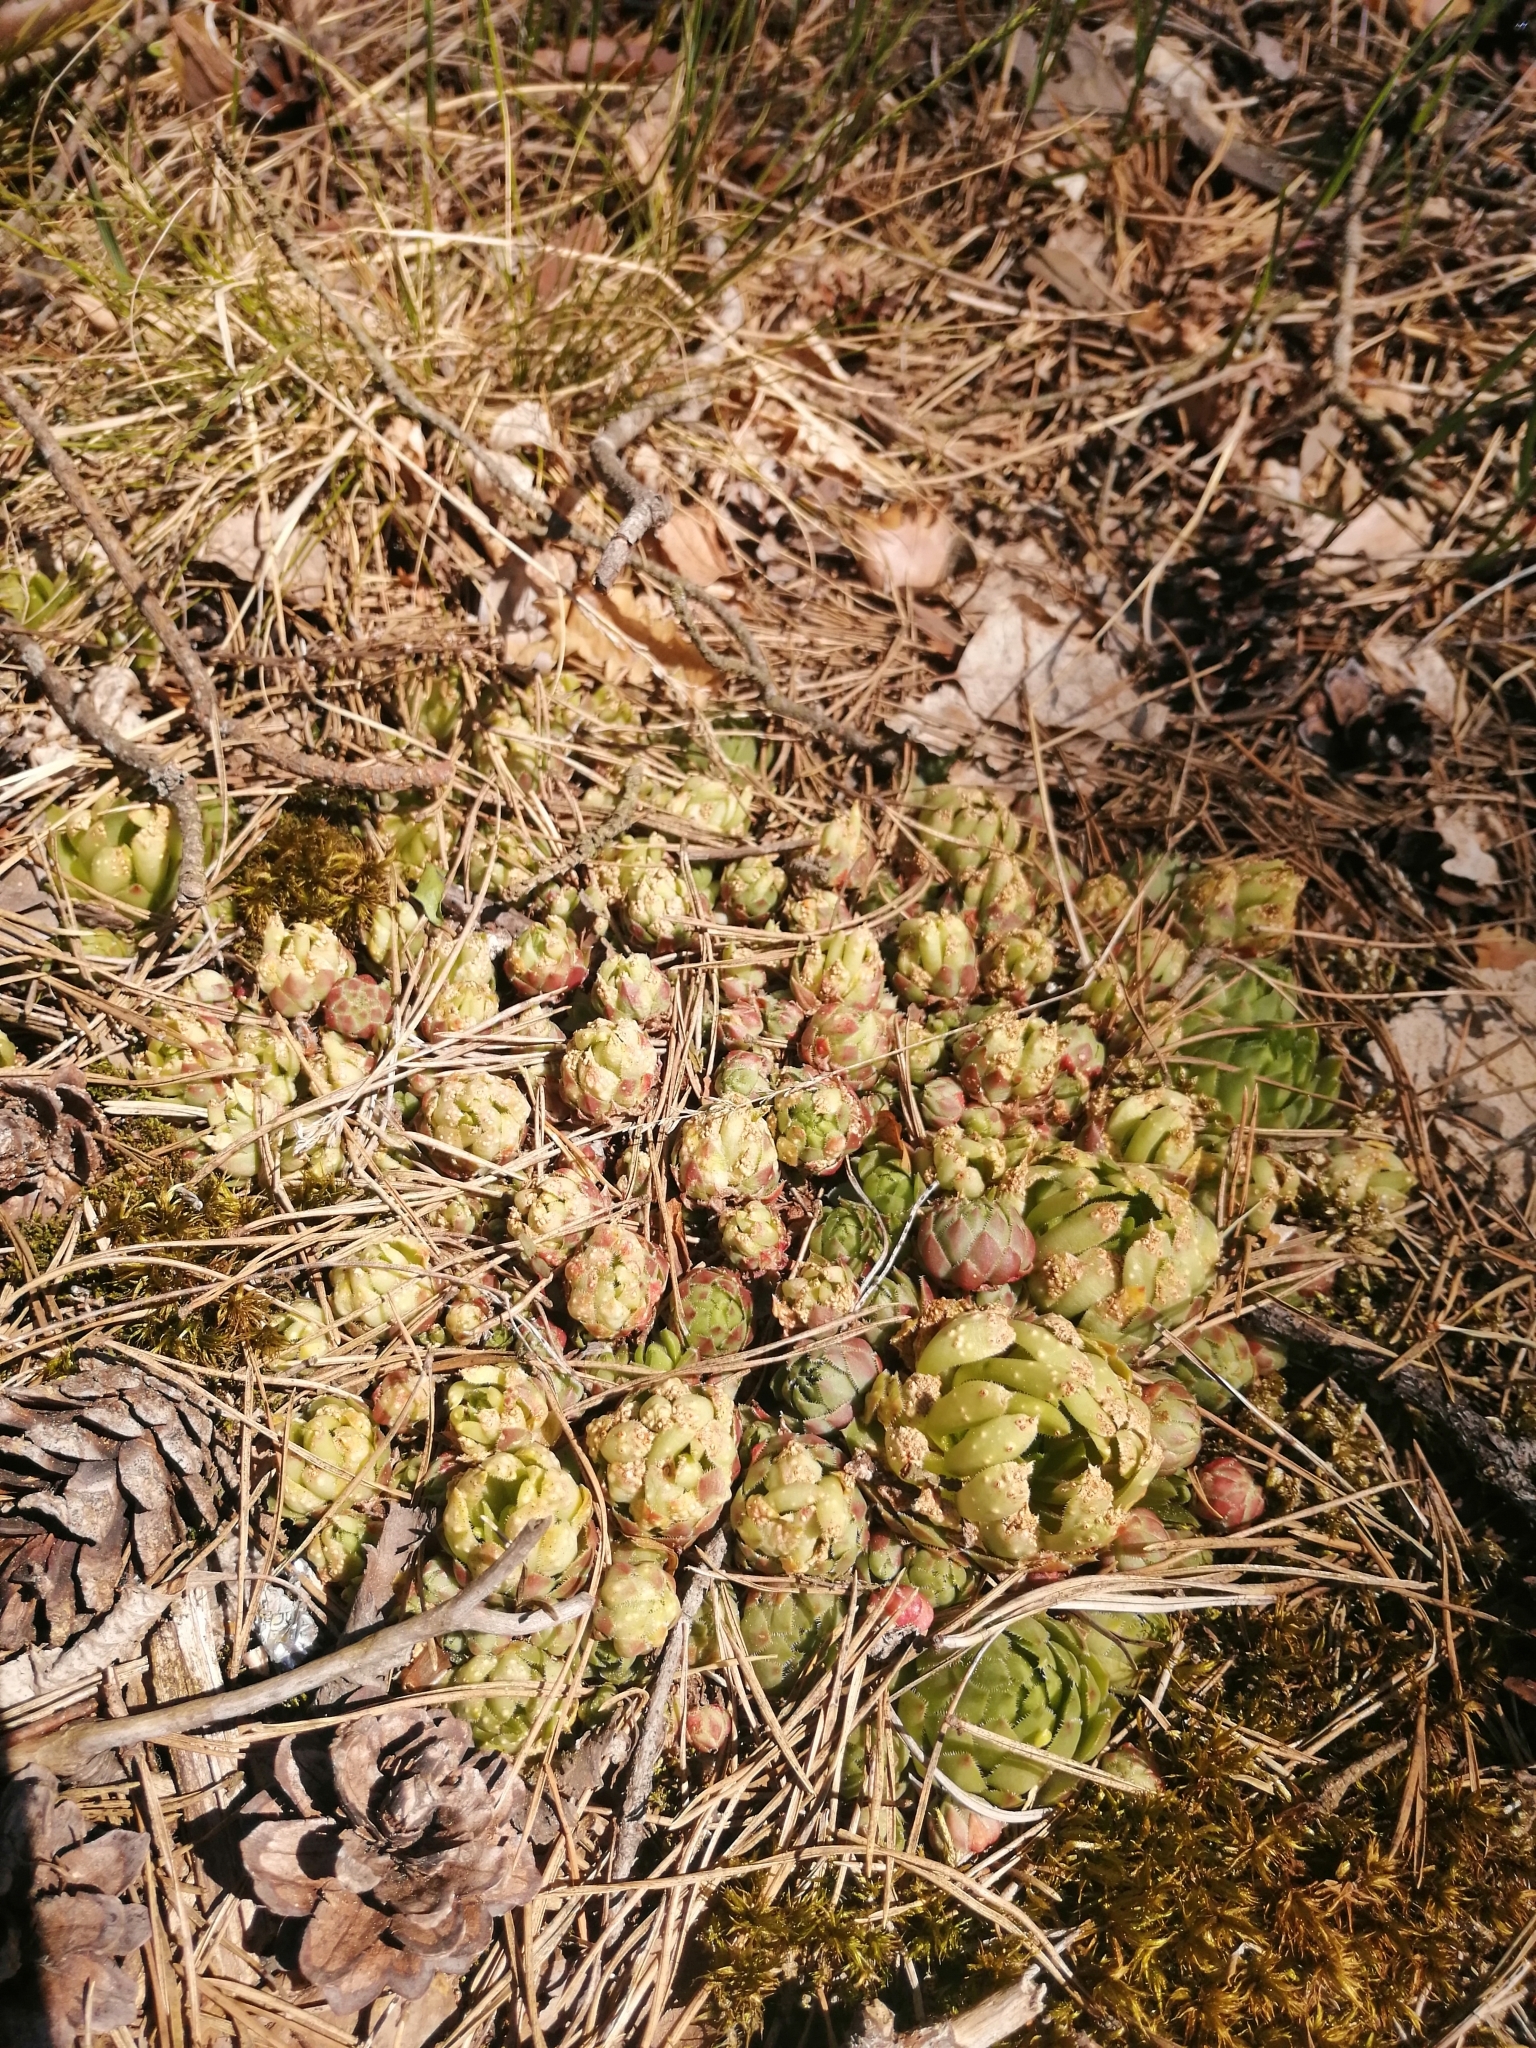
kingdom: Plantae
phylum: Tracheophyta
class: Magnoliopsida
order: Saxifragales
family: Crassulaceae
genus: Sempervivum
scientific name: Sempervivum globiferum
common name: Rolling hen-and-chicks
